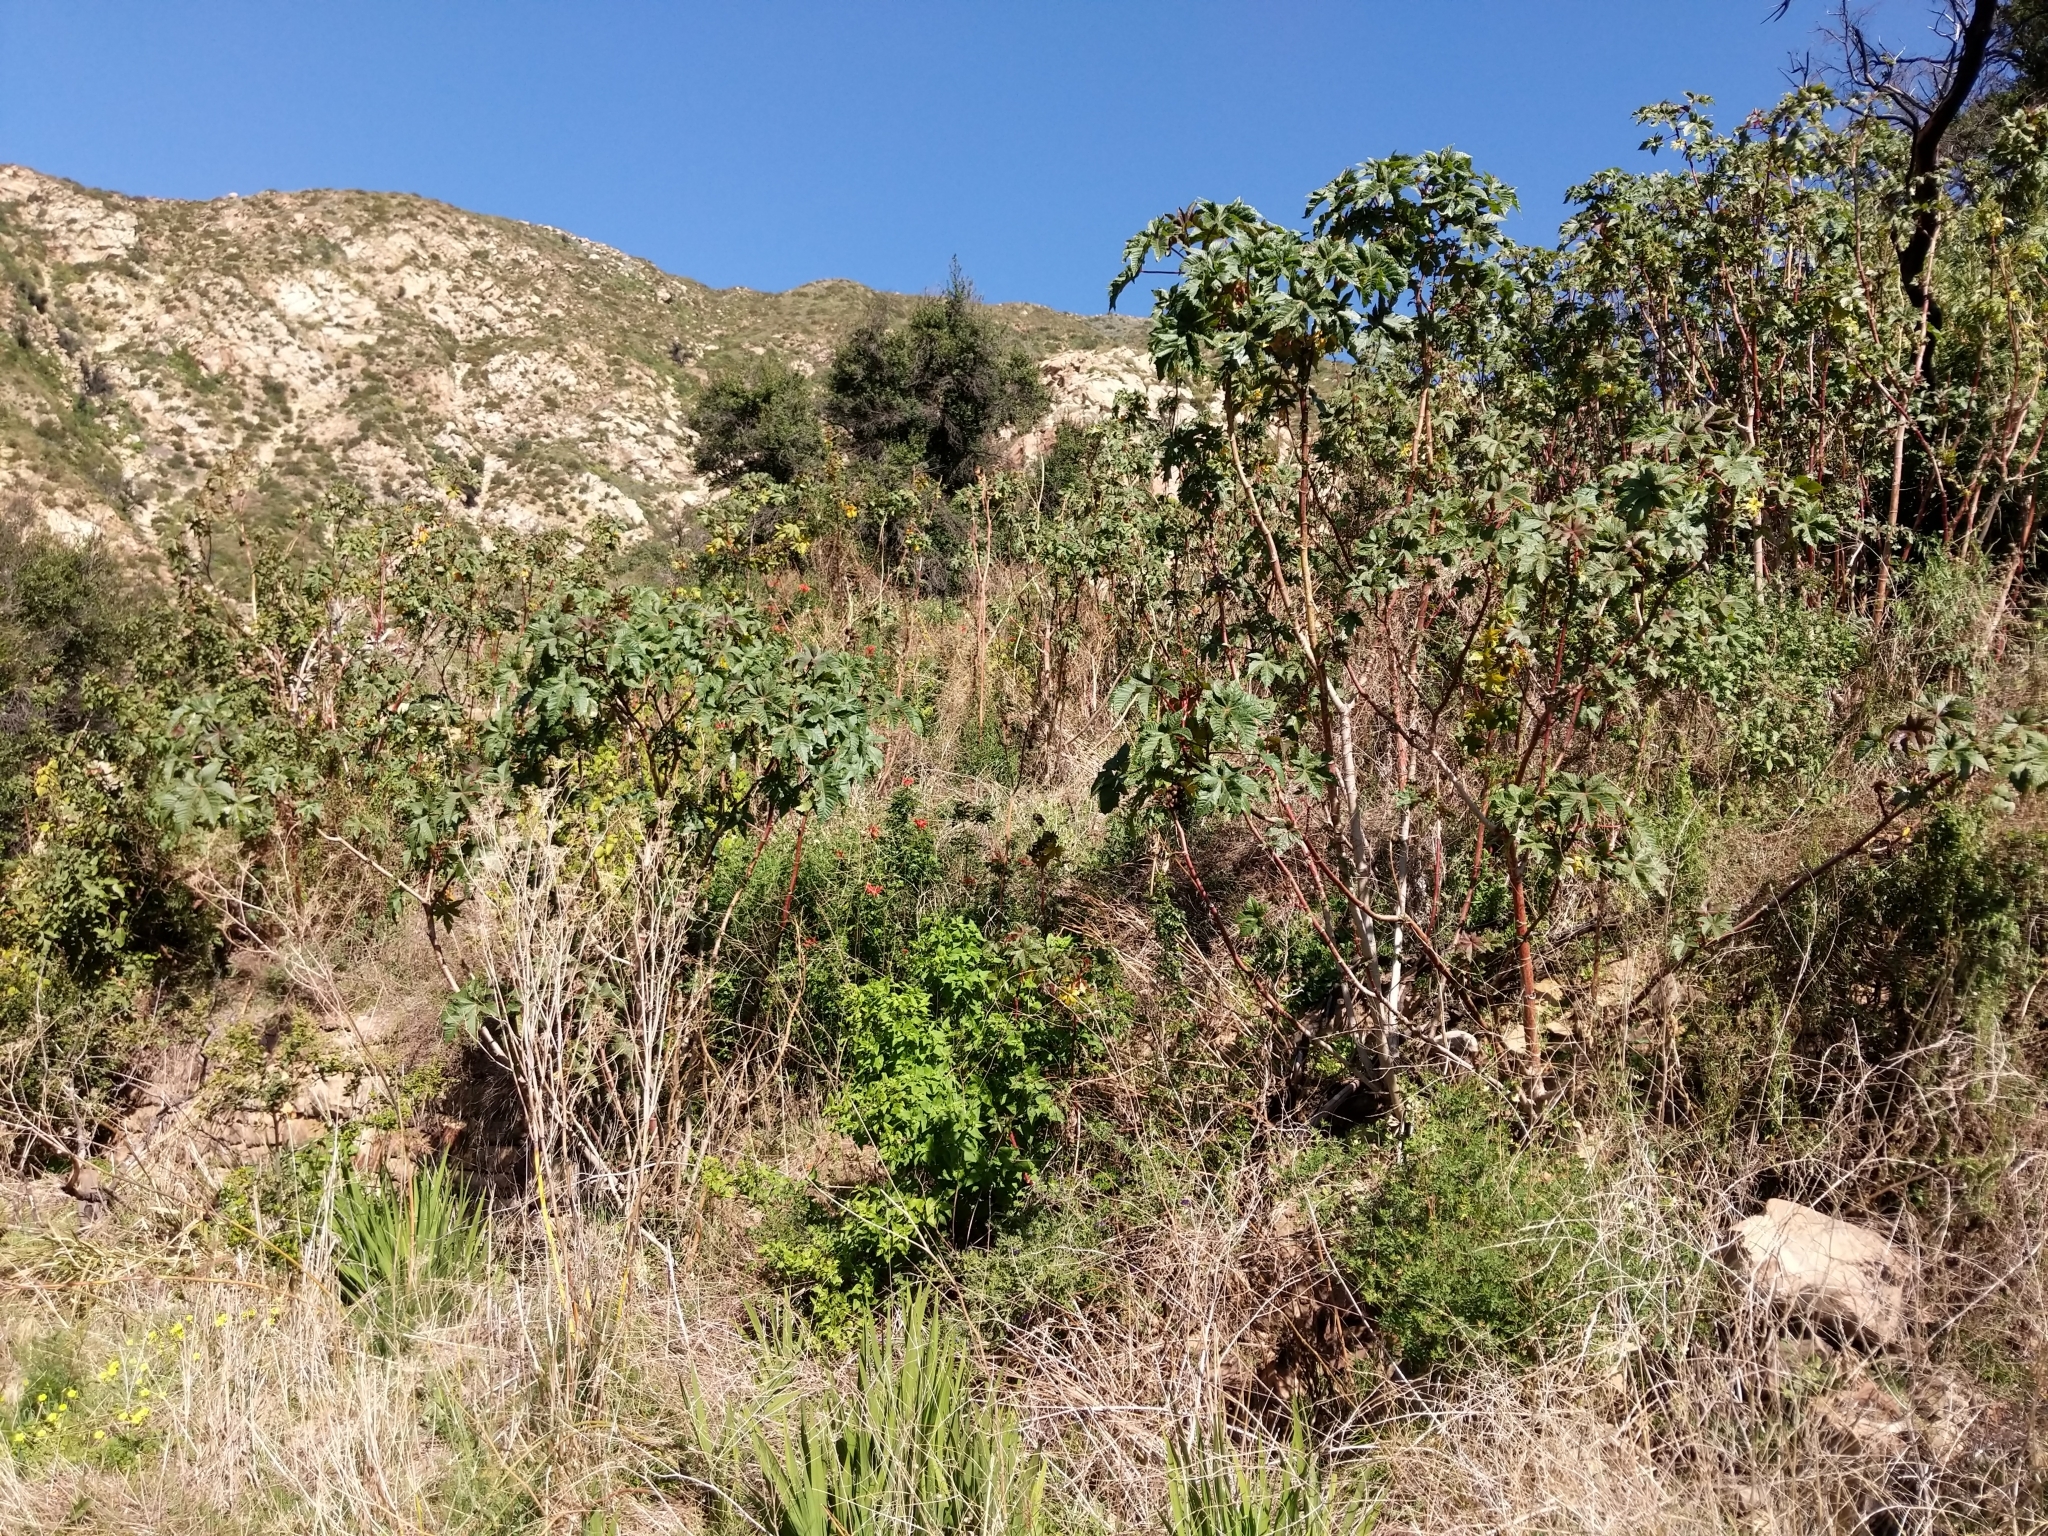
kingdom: Plantae
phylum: Tracheophyta
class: Magnoliopsida
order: Malpighiales
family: Euphorbiaceae
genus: Ricinus
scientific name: Ricinus communis
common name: Castor-oil-plant
